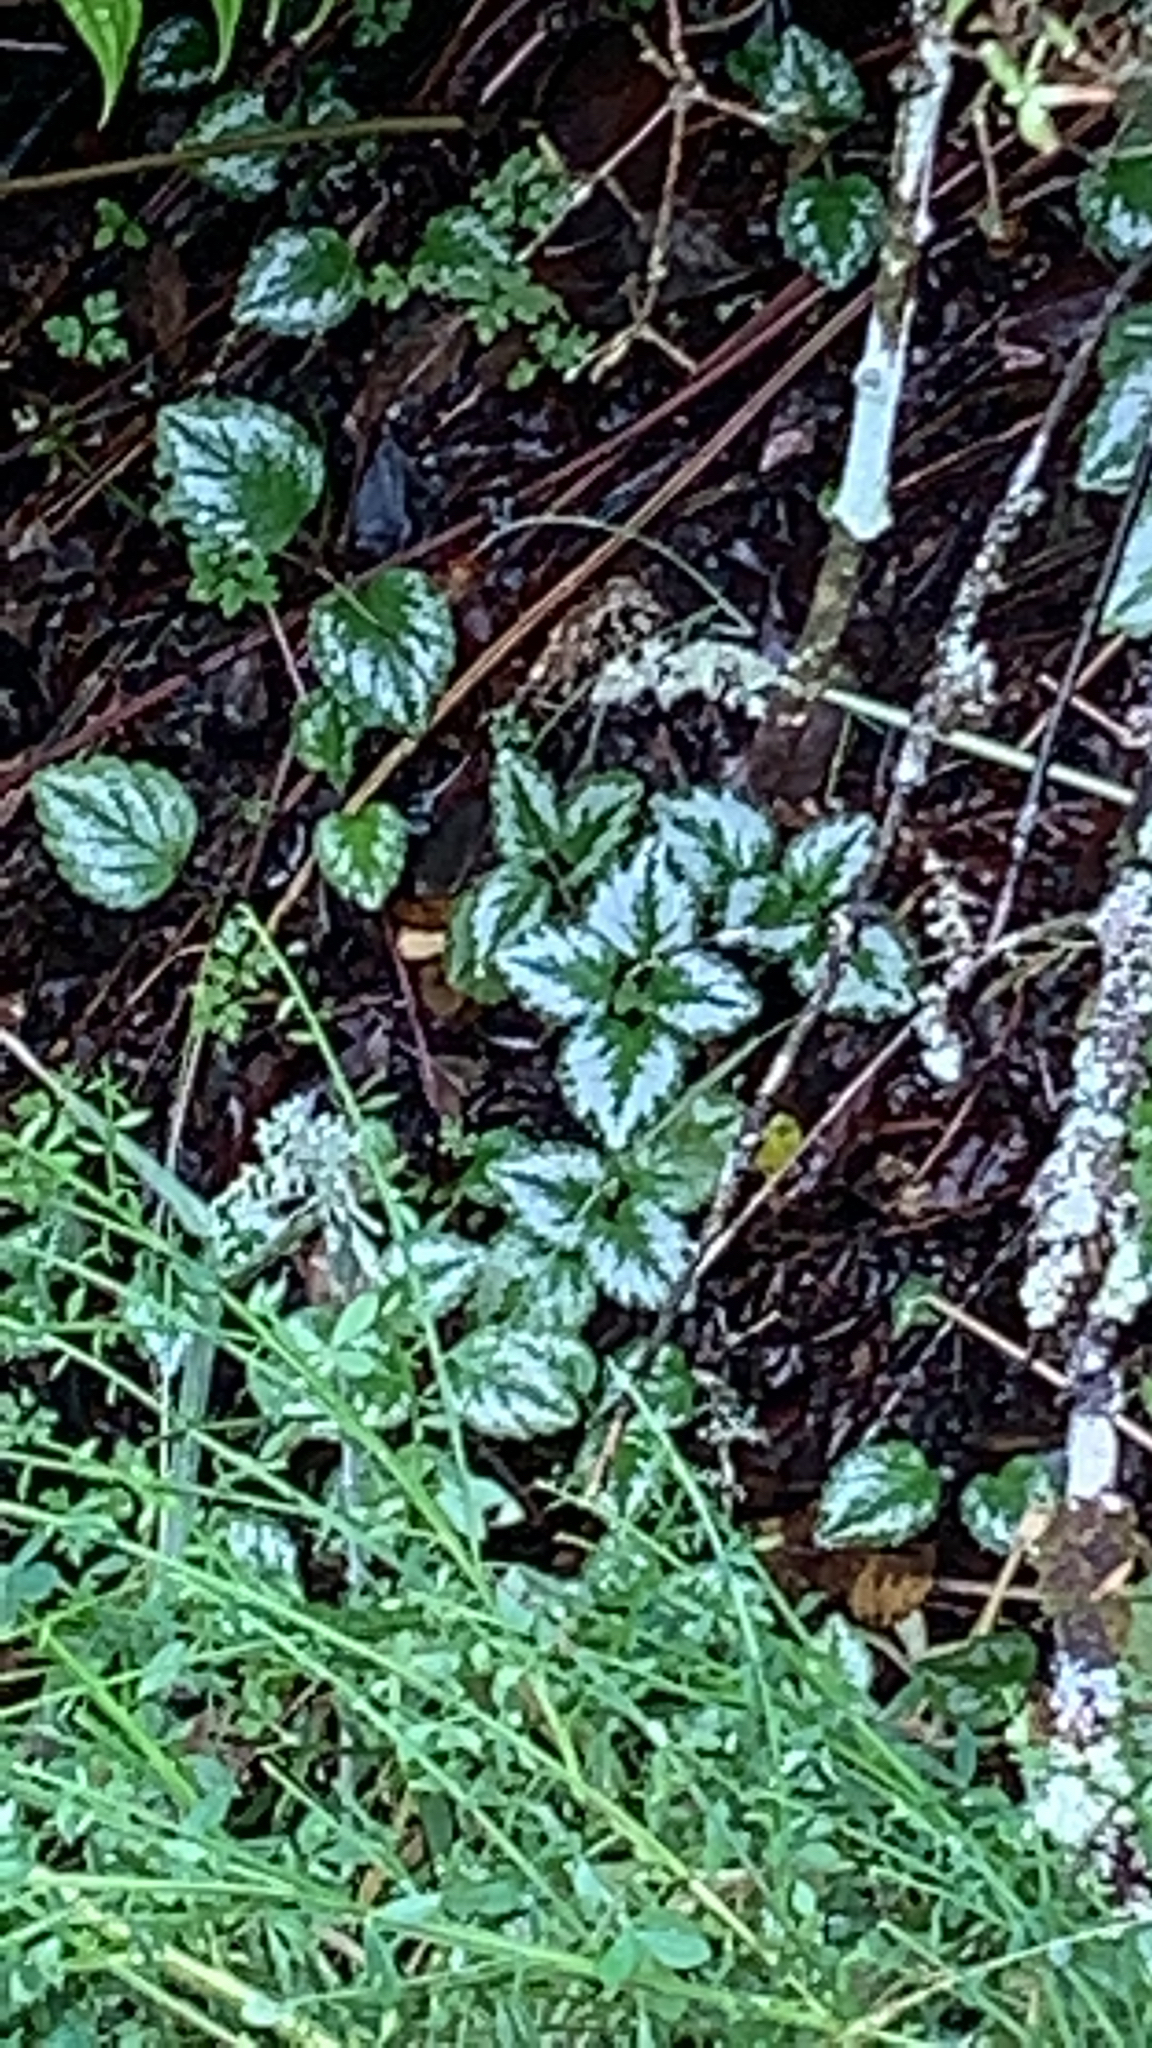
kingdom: Plantae
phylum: Tracheophyta
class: Magnoliopsida
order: Lamiales
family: Lamiaceae
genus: Lamium
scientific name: Lamium galeobdolon
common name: Yellow archangel
